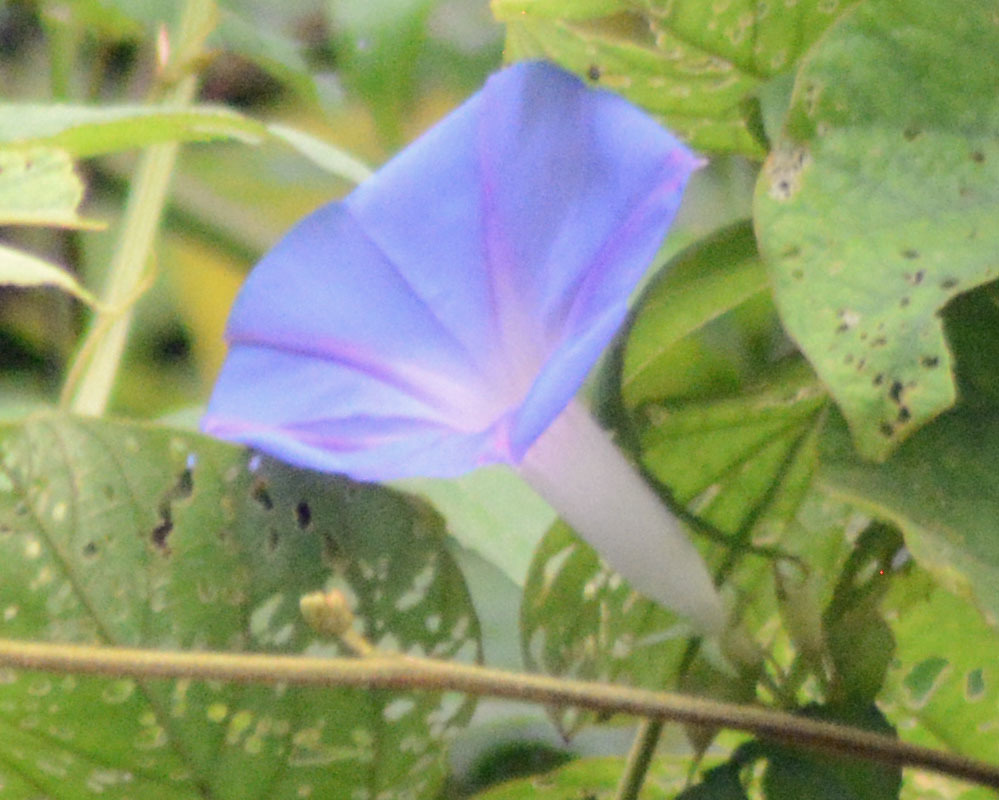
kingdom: Plantae
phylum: Tracheophyta
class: Magnoliopsida
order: Solanales
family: Convolvulaceae
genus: Ipomoea
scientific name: Ipomoea indica
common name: Blue dawnflower
